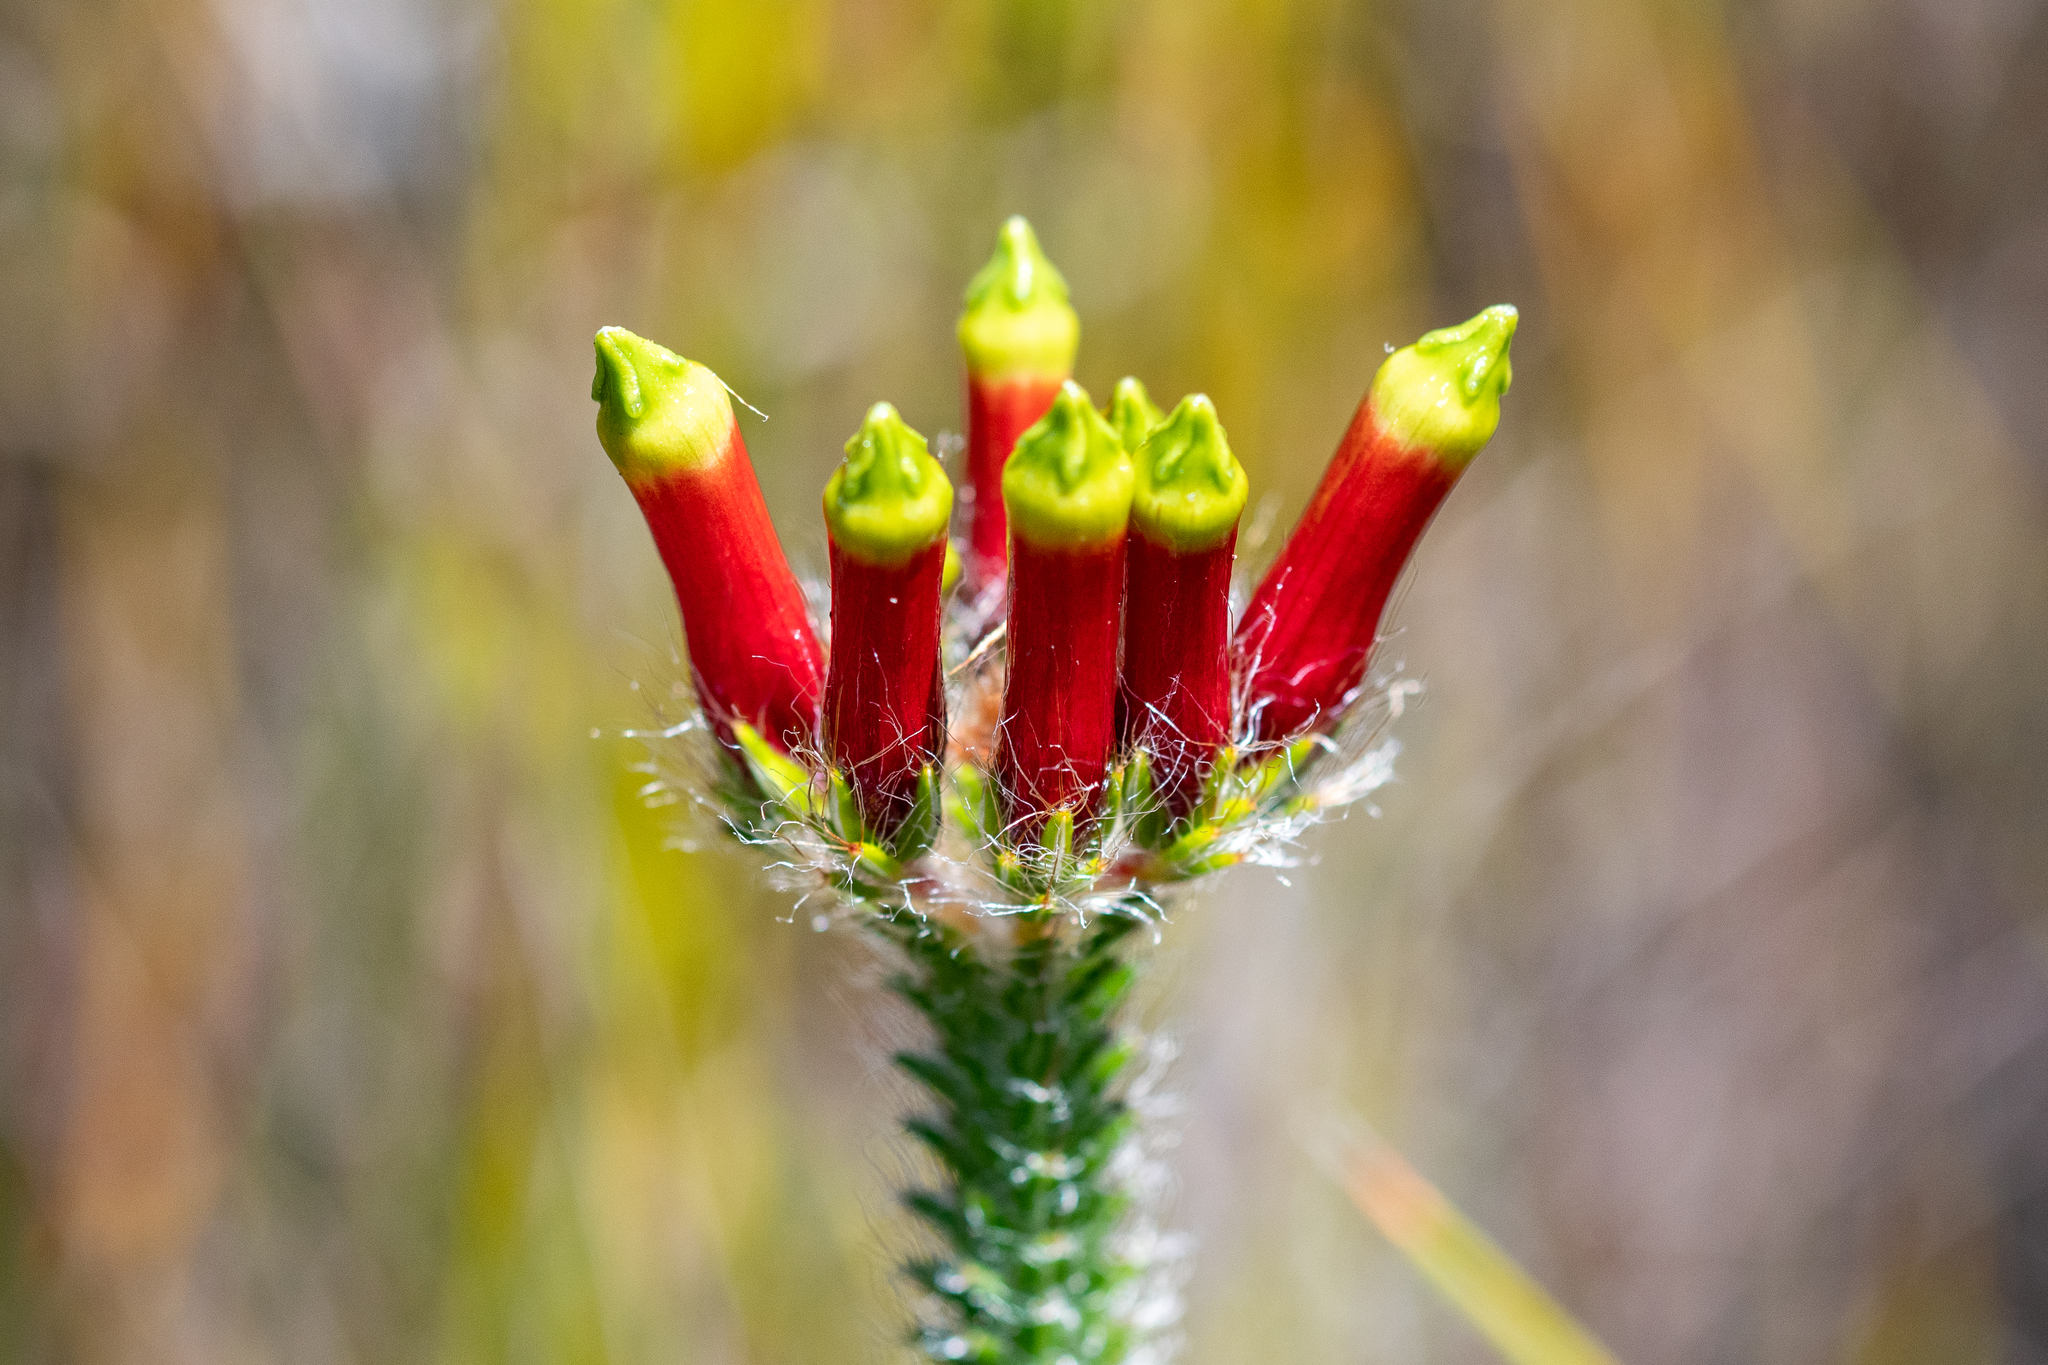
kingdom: Plantae
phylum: Tracheophyta
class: Magnoliopsida
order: Ericales
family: Ericaceae
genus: Erica
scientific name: Erica massonii
